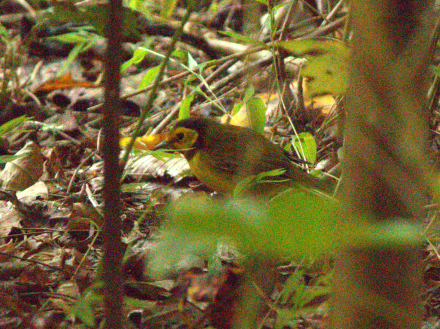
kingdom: Animalia
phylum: Chordata
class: Aves
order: Passeriformes
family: Parulidae
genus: Setophaga
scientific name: Setophaga citrina
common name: Hooded warbler
